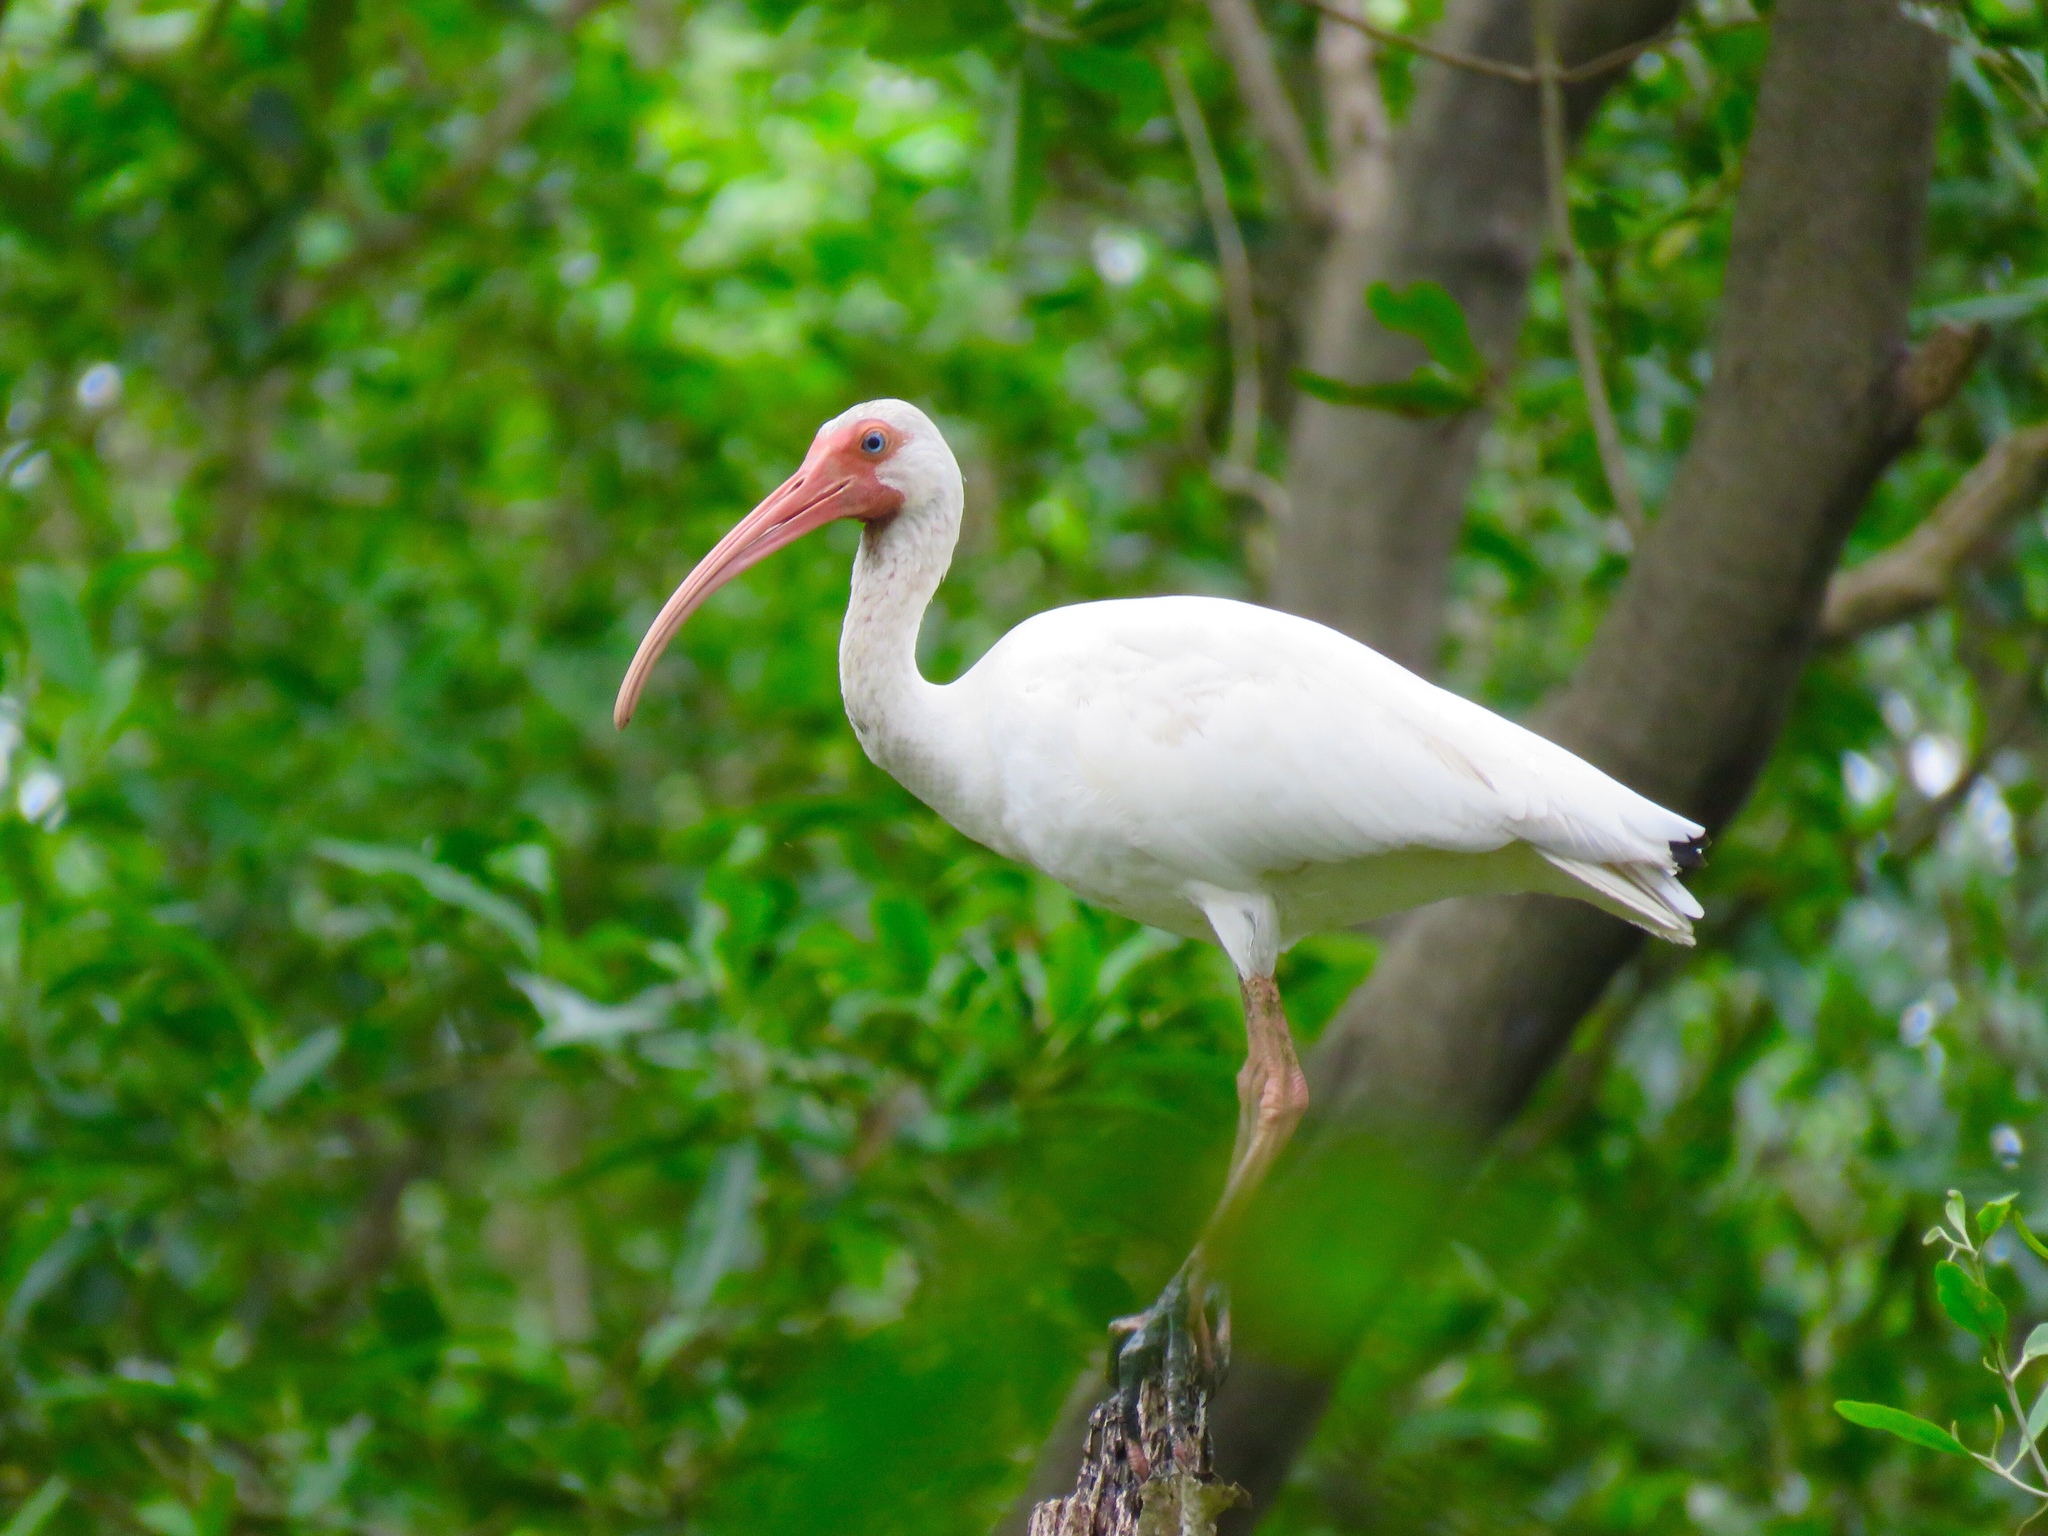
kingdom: Animalia
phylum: Chordata
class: Aves
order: Pelecaniformes
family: Threskiornithidae
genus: Eudocimus
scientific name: Eudocimus albus
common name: White ibis
